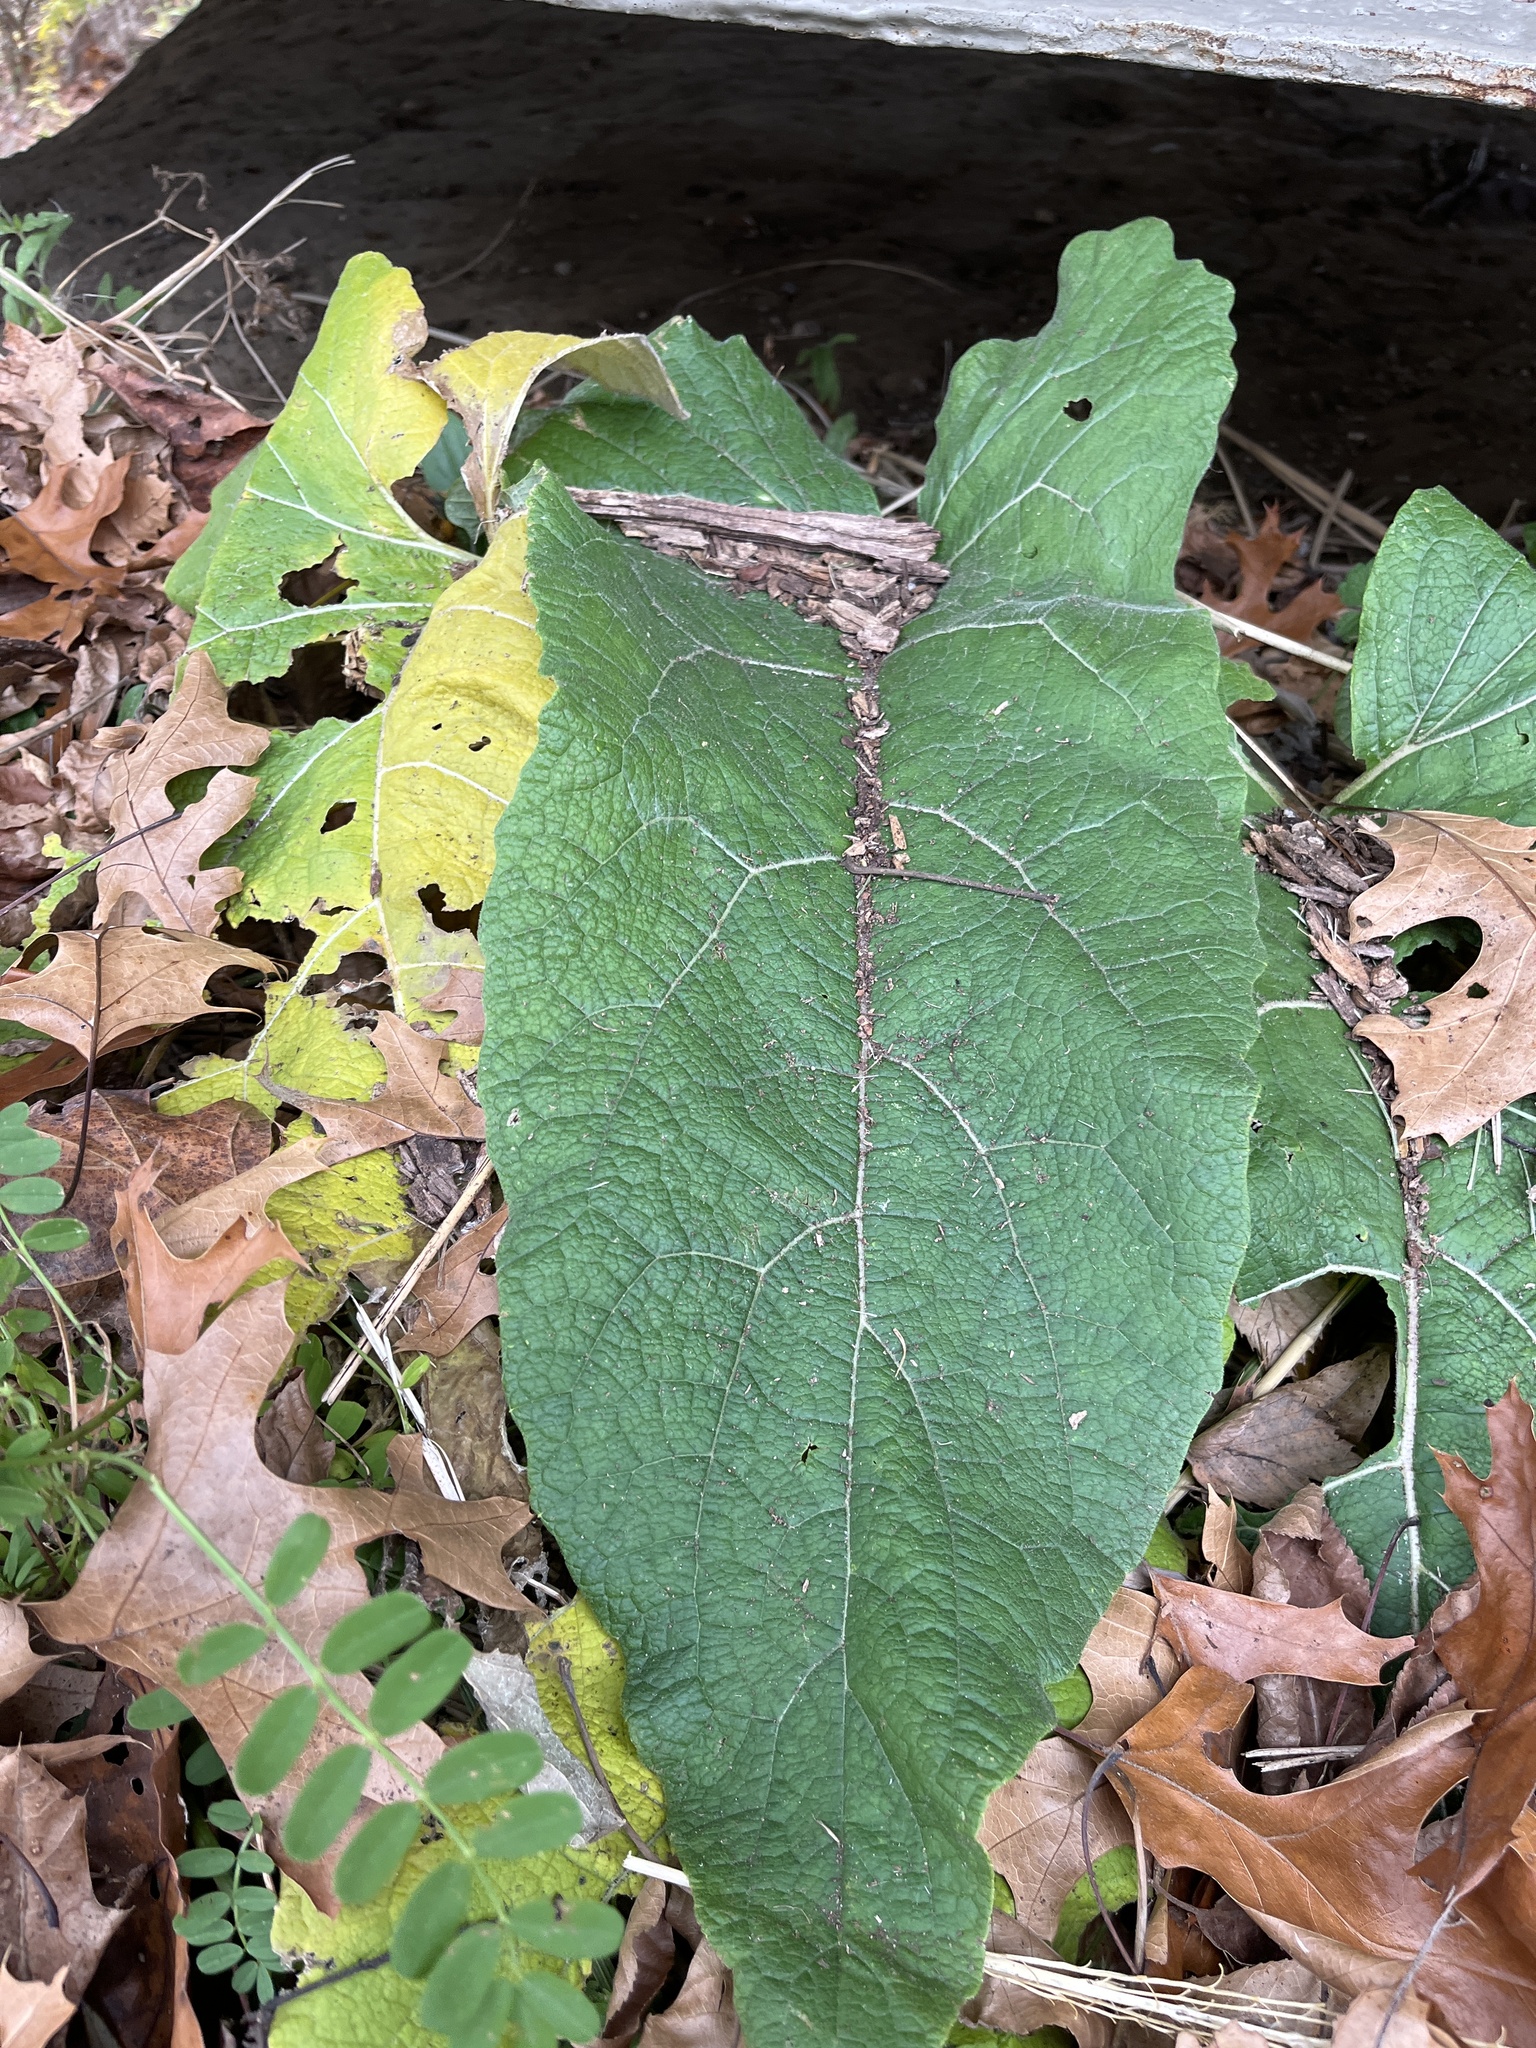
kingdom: Plantae
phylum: Tracheophyta
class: Magnoliopsida
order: Asterales
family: Asteraceae
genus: Arctium
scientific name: Arctium
